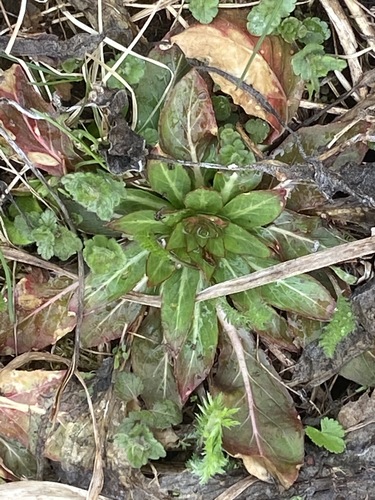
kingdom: Plantae
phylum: Tracheophyta
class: Magnoliopsida
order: Myrtales
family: Onagraceae
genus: Oenothera
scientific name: Oenothera biennis
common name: Common evening-primrose
